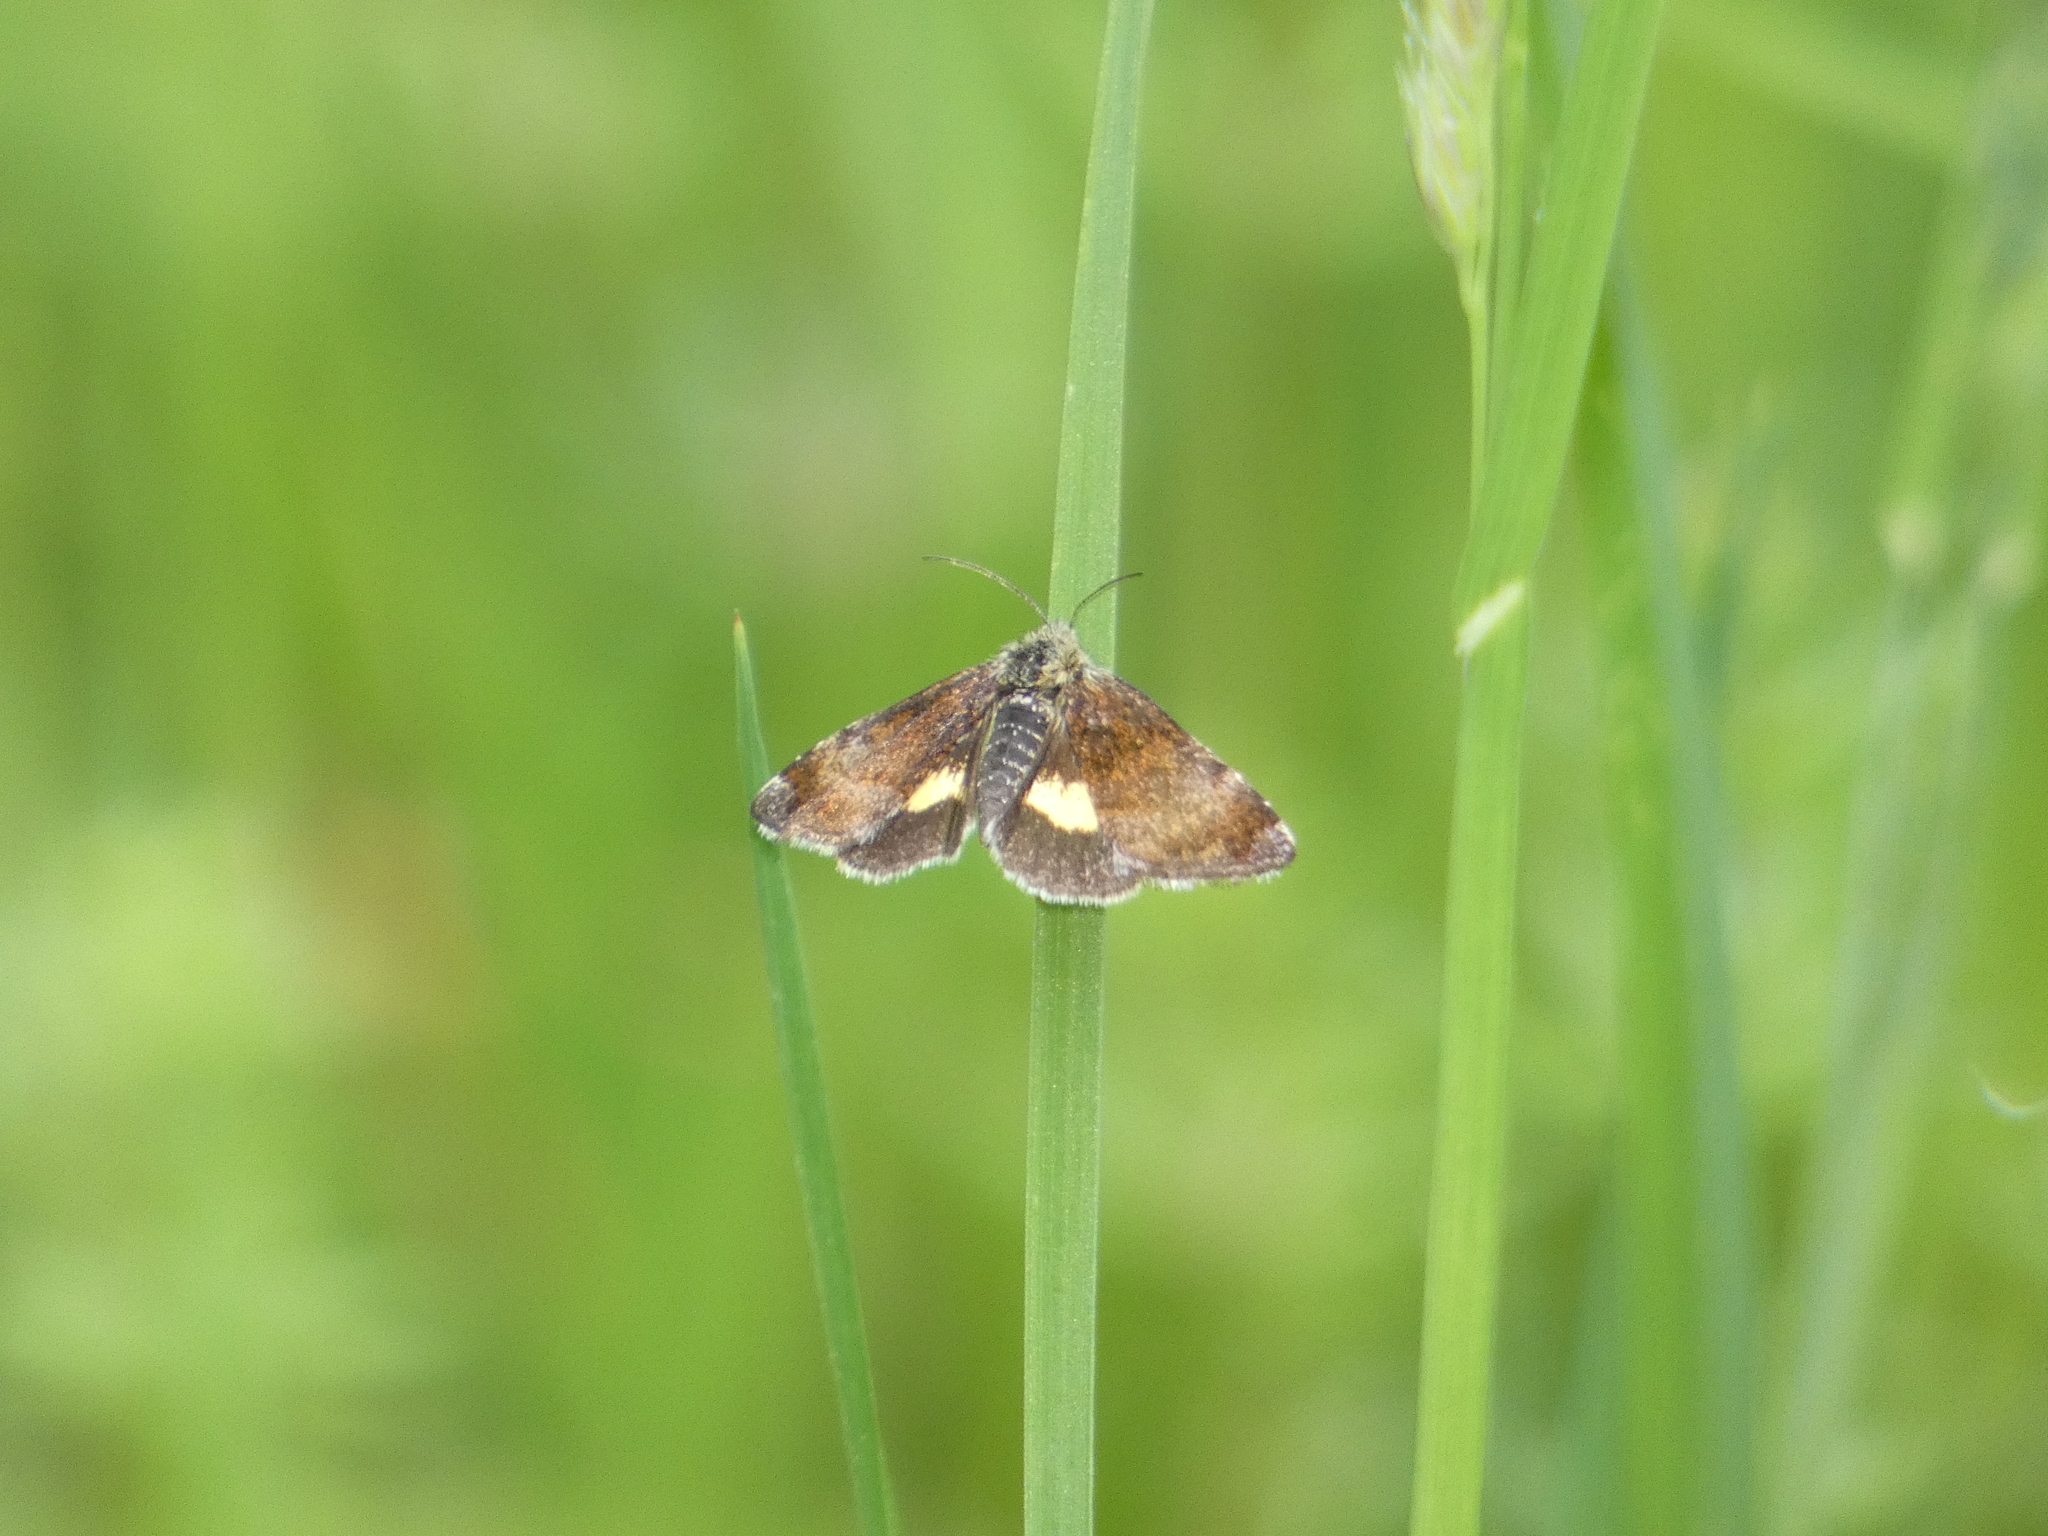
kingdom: Animalia
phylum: Arthropoda
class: Insecta
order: Lepidoptera
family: Noctuidae
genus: Panemeria
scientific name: Panemeria tenebrata
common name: Small yellow underwing
